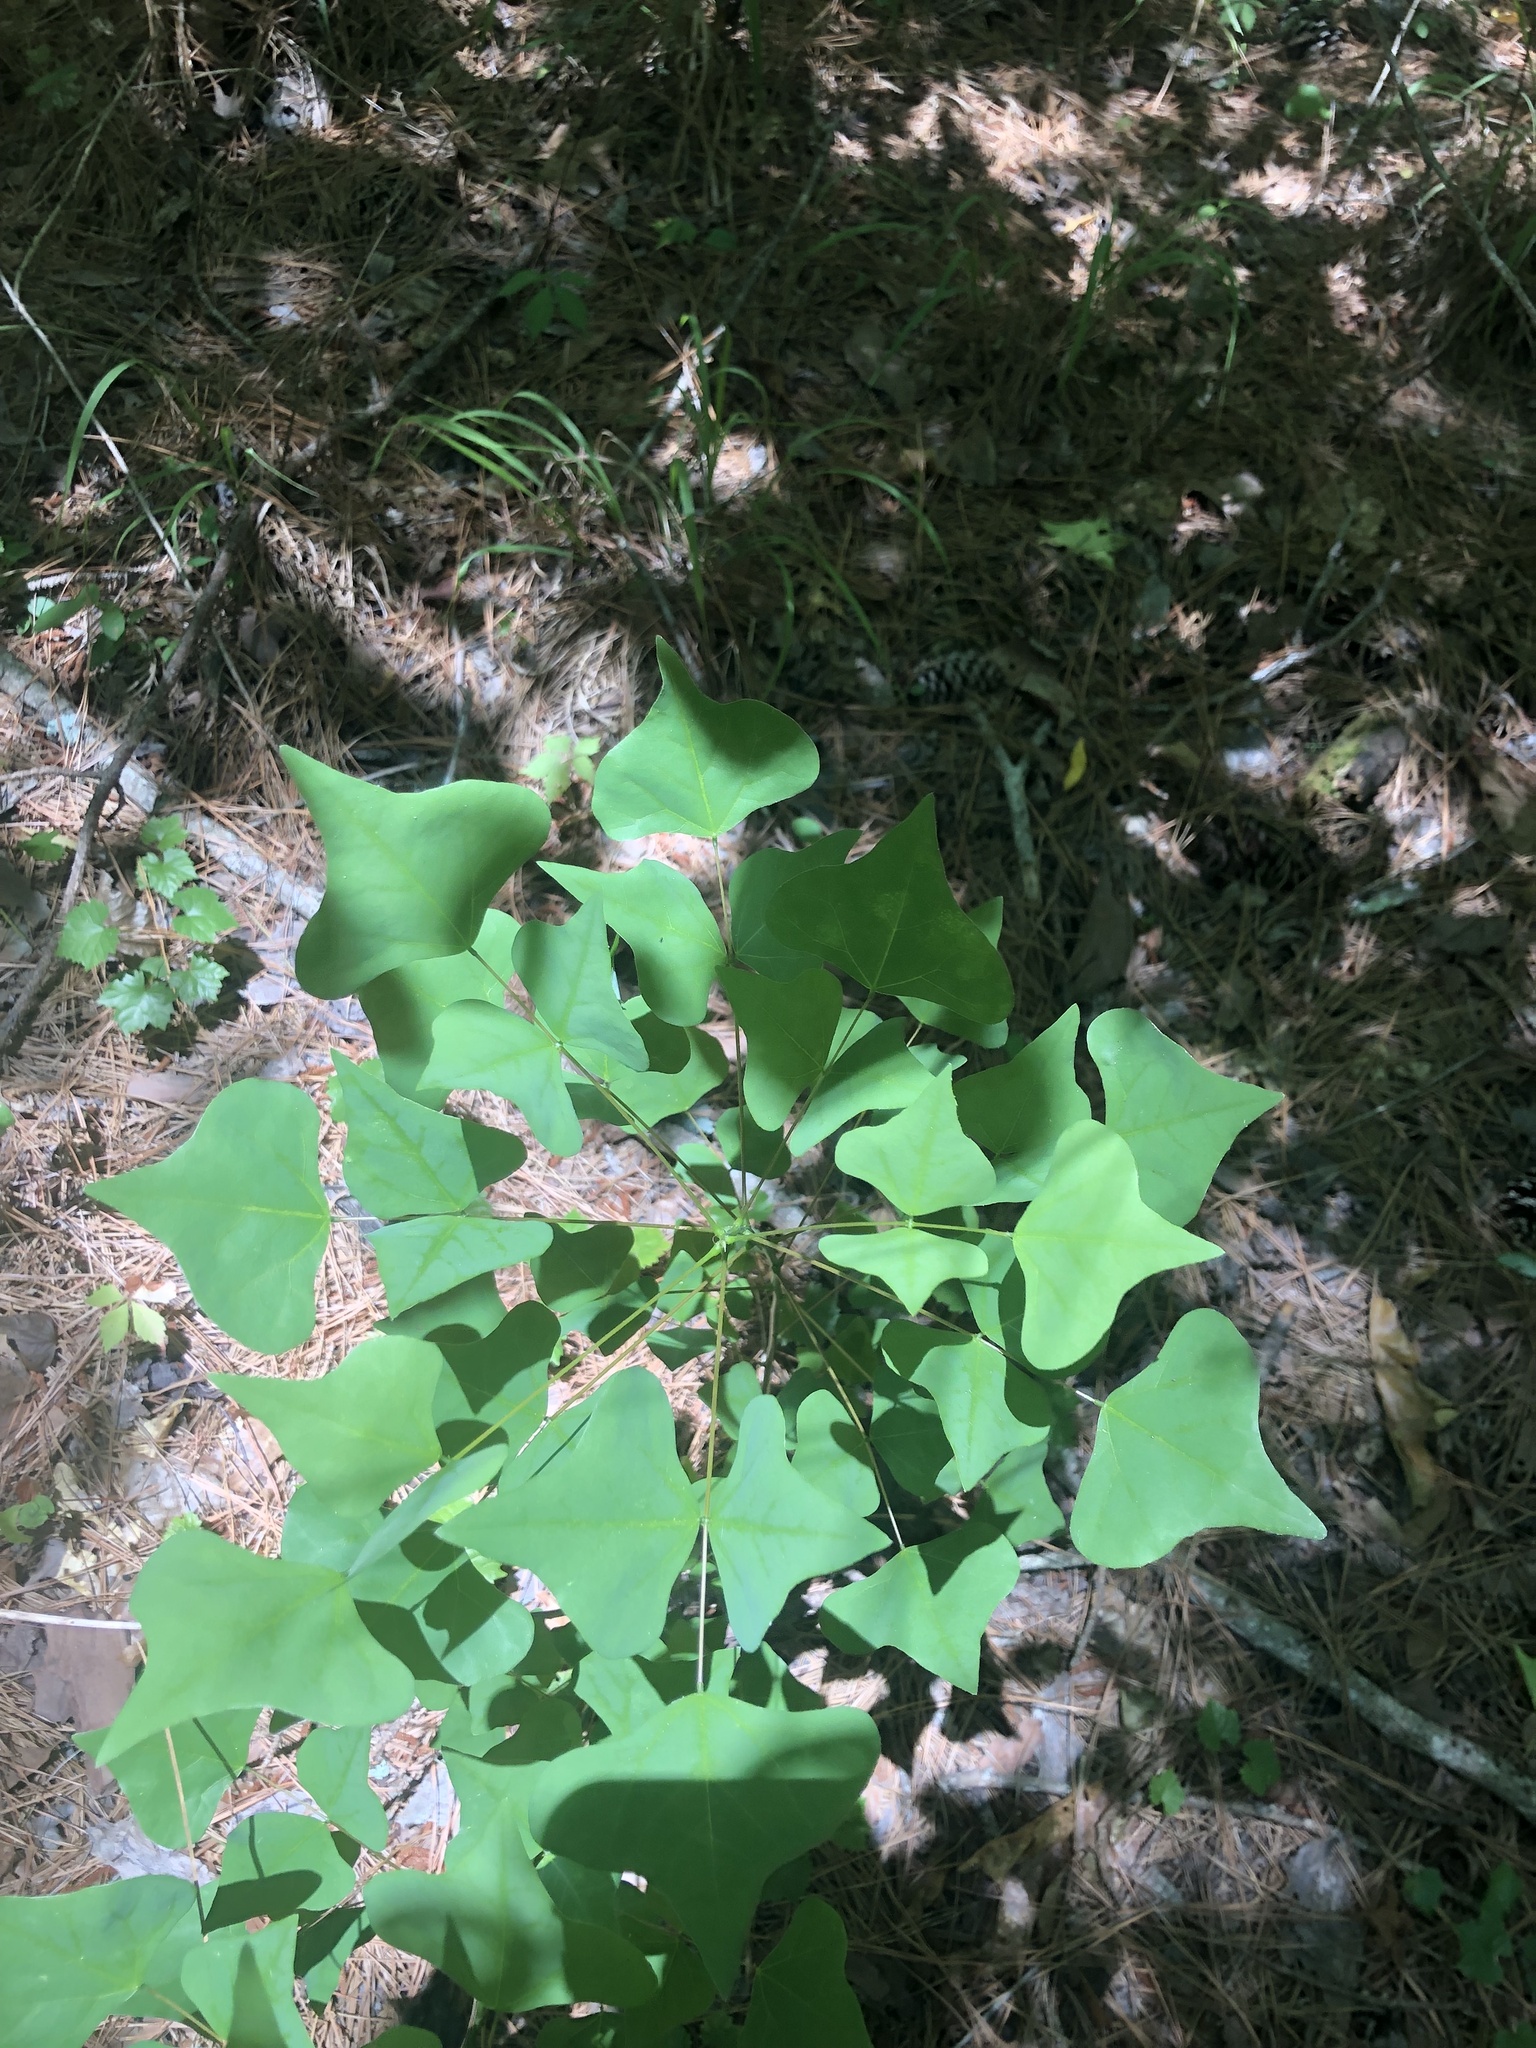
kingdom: Plantae
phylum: Tracheophyta
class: Magnoliopsida
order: Fabales
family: Fabaceae
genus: Erythrina
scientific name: Erythrina herbacea
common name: Coral-bean
